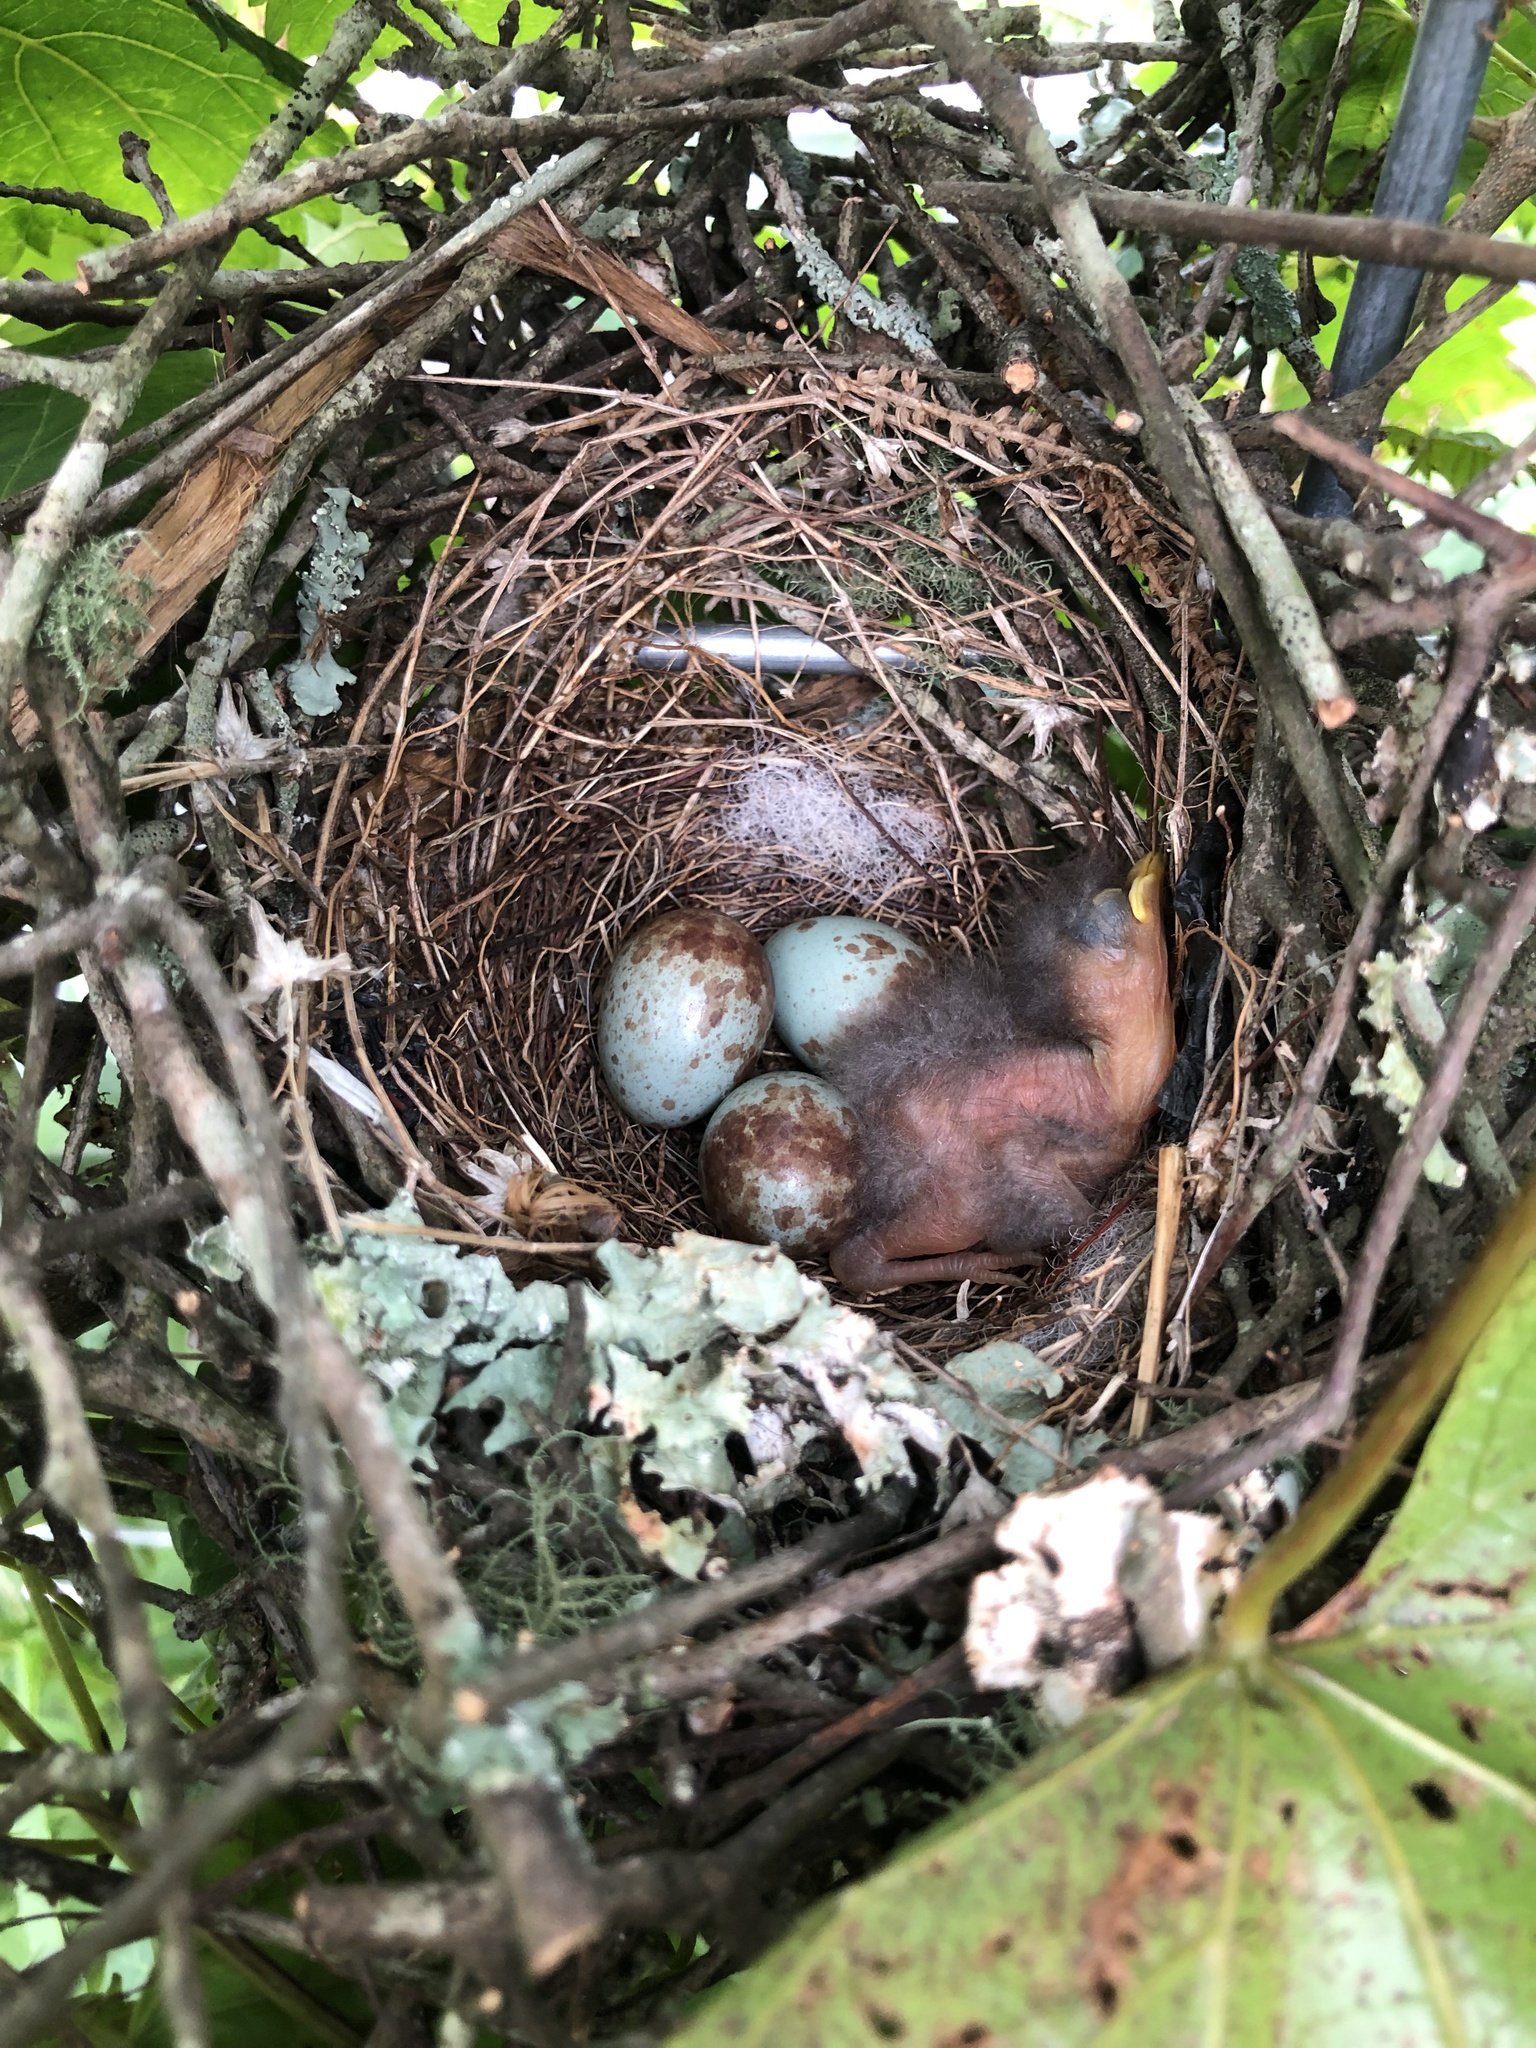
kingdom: Animalia
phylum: Chordata
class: Aves
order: Passeriformes
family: Mimidae
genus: Mimus
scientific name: Mimus polyglottos
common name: Northern mockingbird
